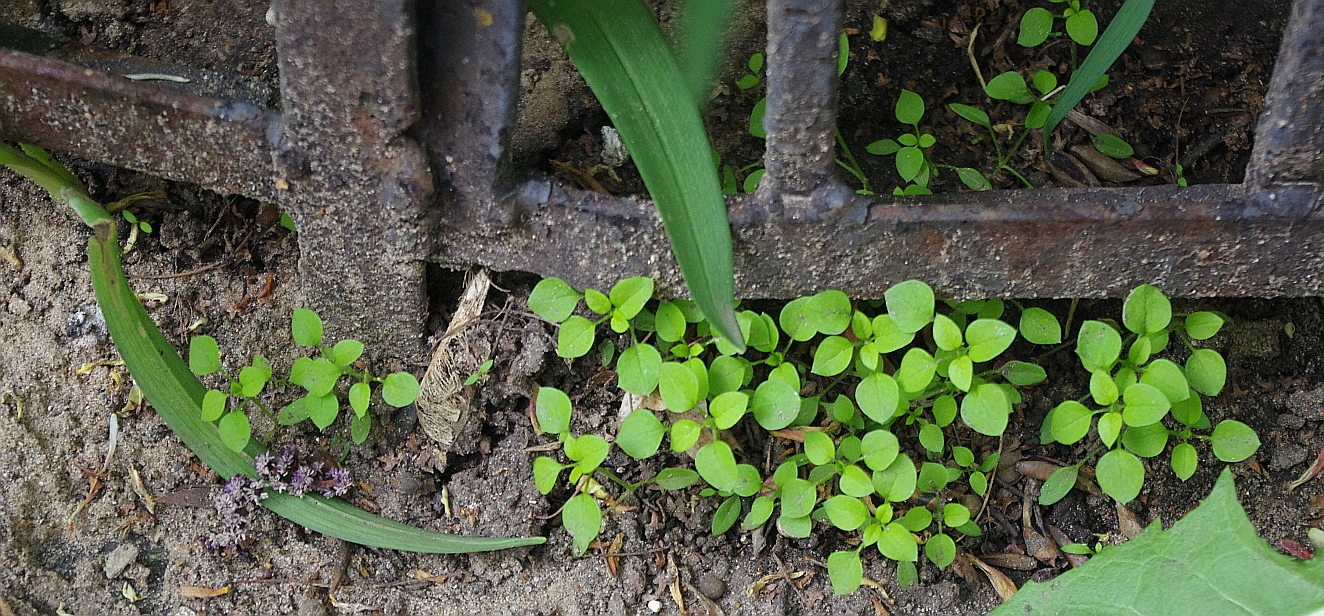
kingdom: Plantae
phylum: Tracheophyta
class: Magnoliopsida
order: Caryophyllales
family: Caryophyllaceae
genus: Stellaria
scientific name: Stellaria media
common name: Common chickweed
